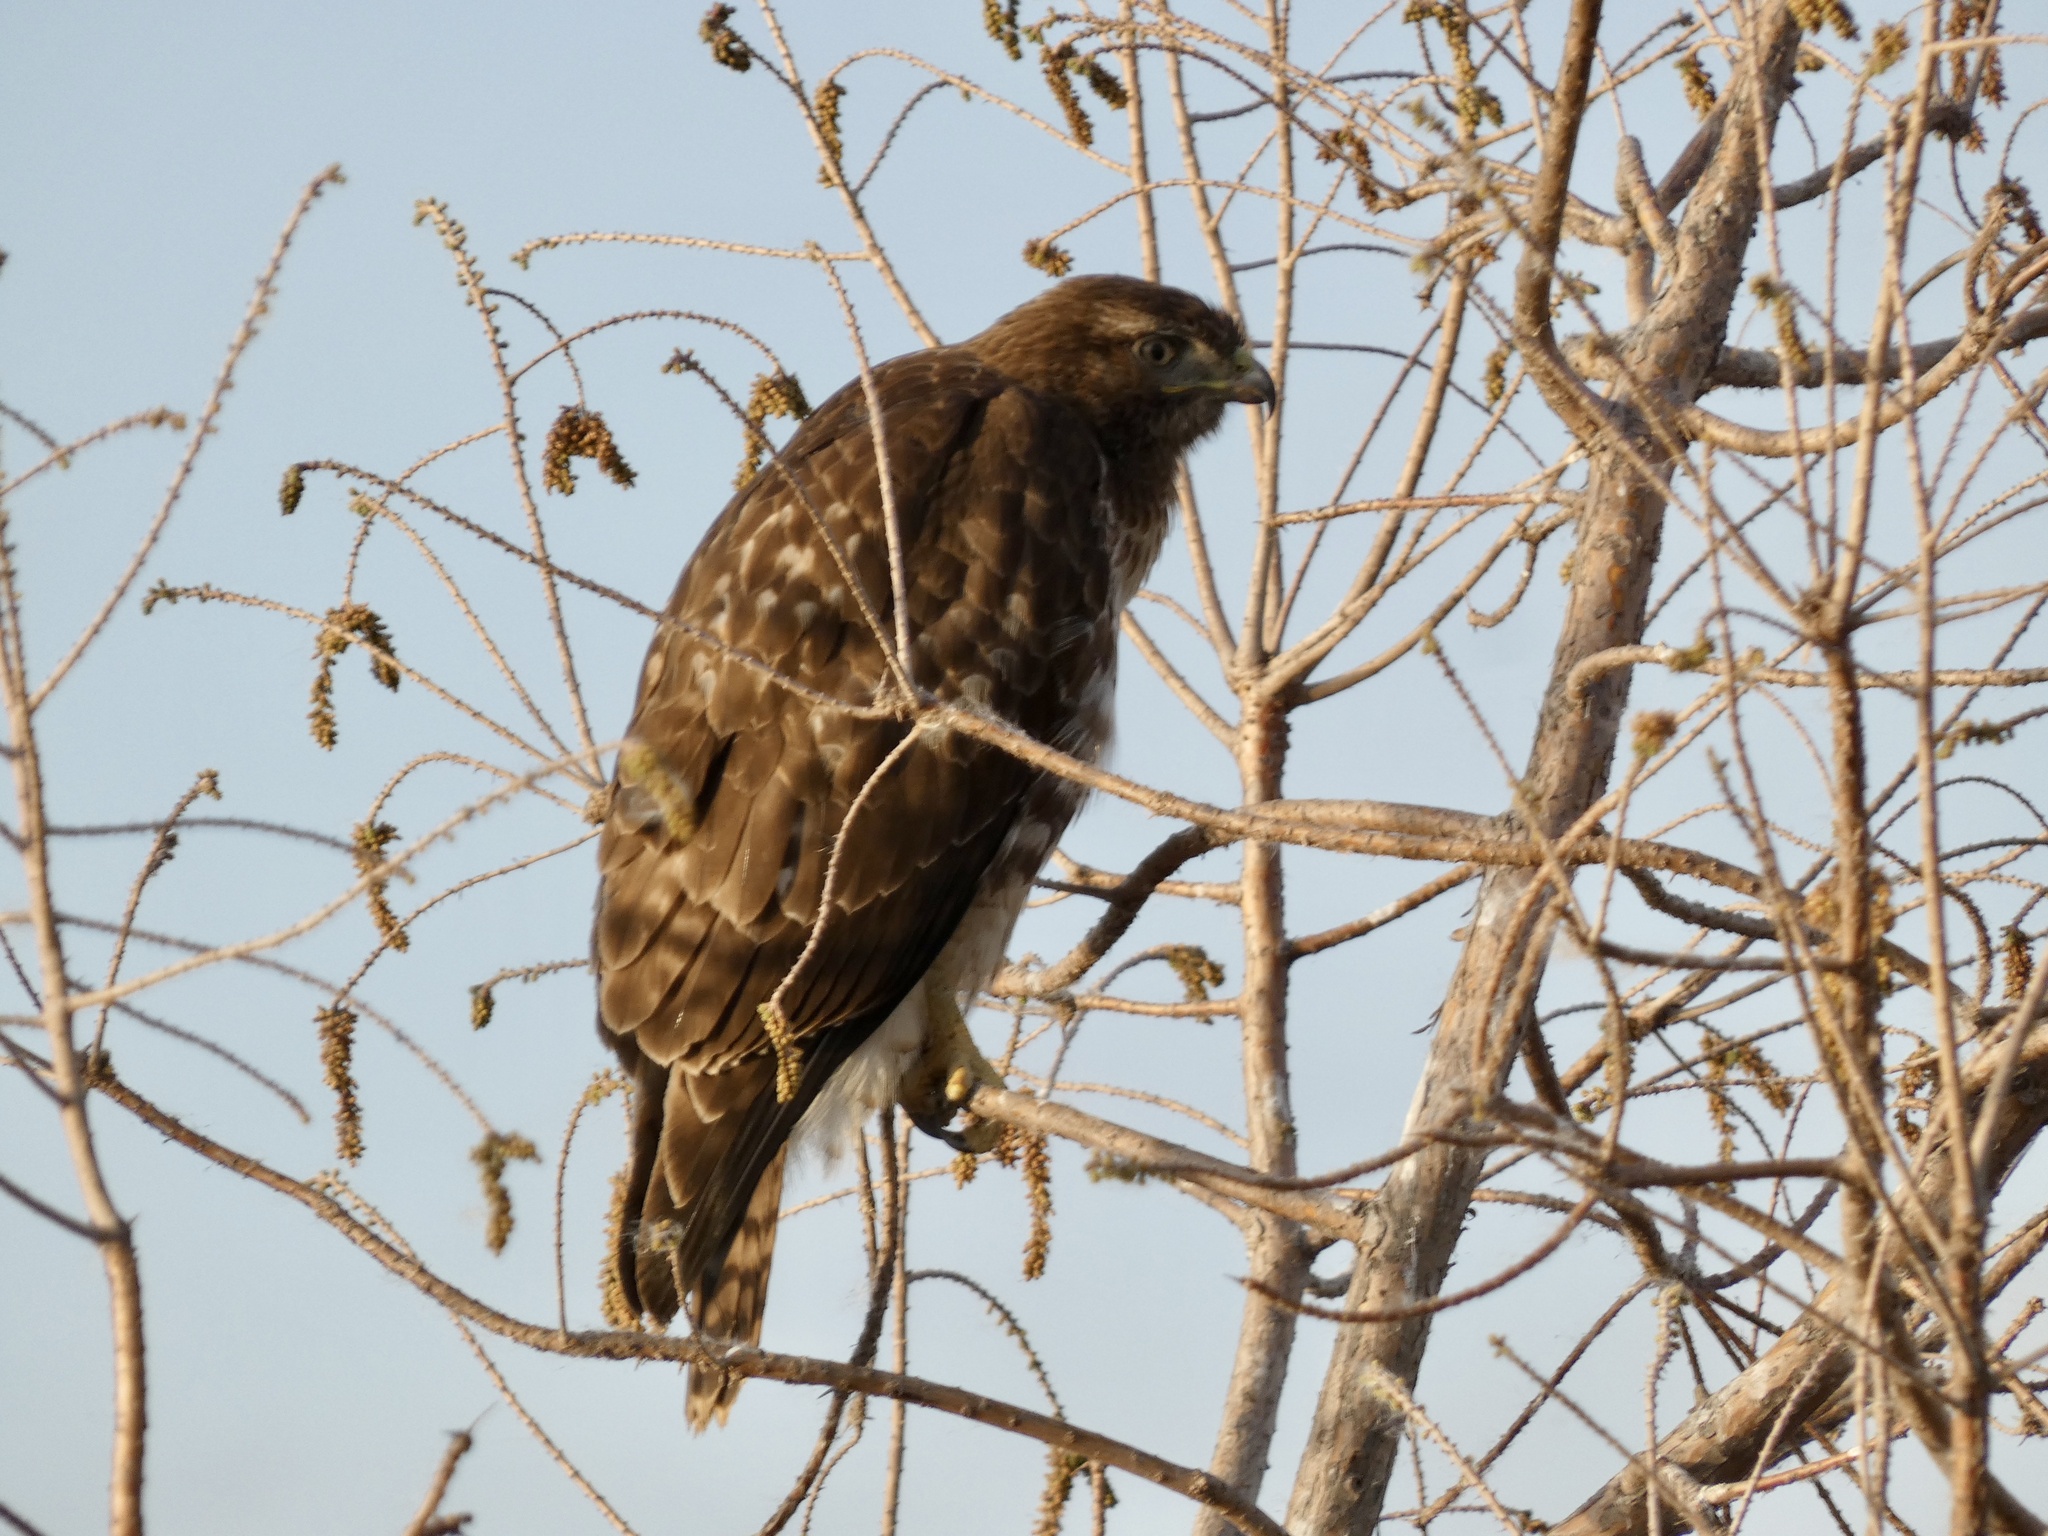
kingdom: Animalia
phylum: Chordata
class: Aves
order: Accipitriformes
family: Accipitridae
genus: Buteo
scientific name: Buteo jamaicensis
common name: Red-tailed hawk
